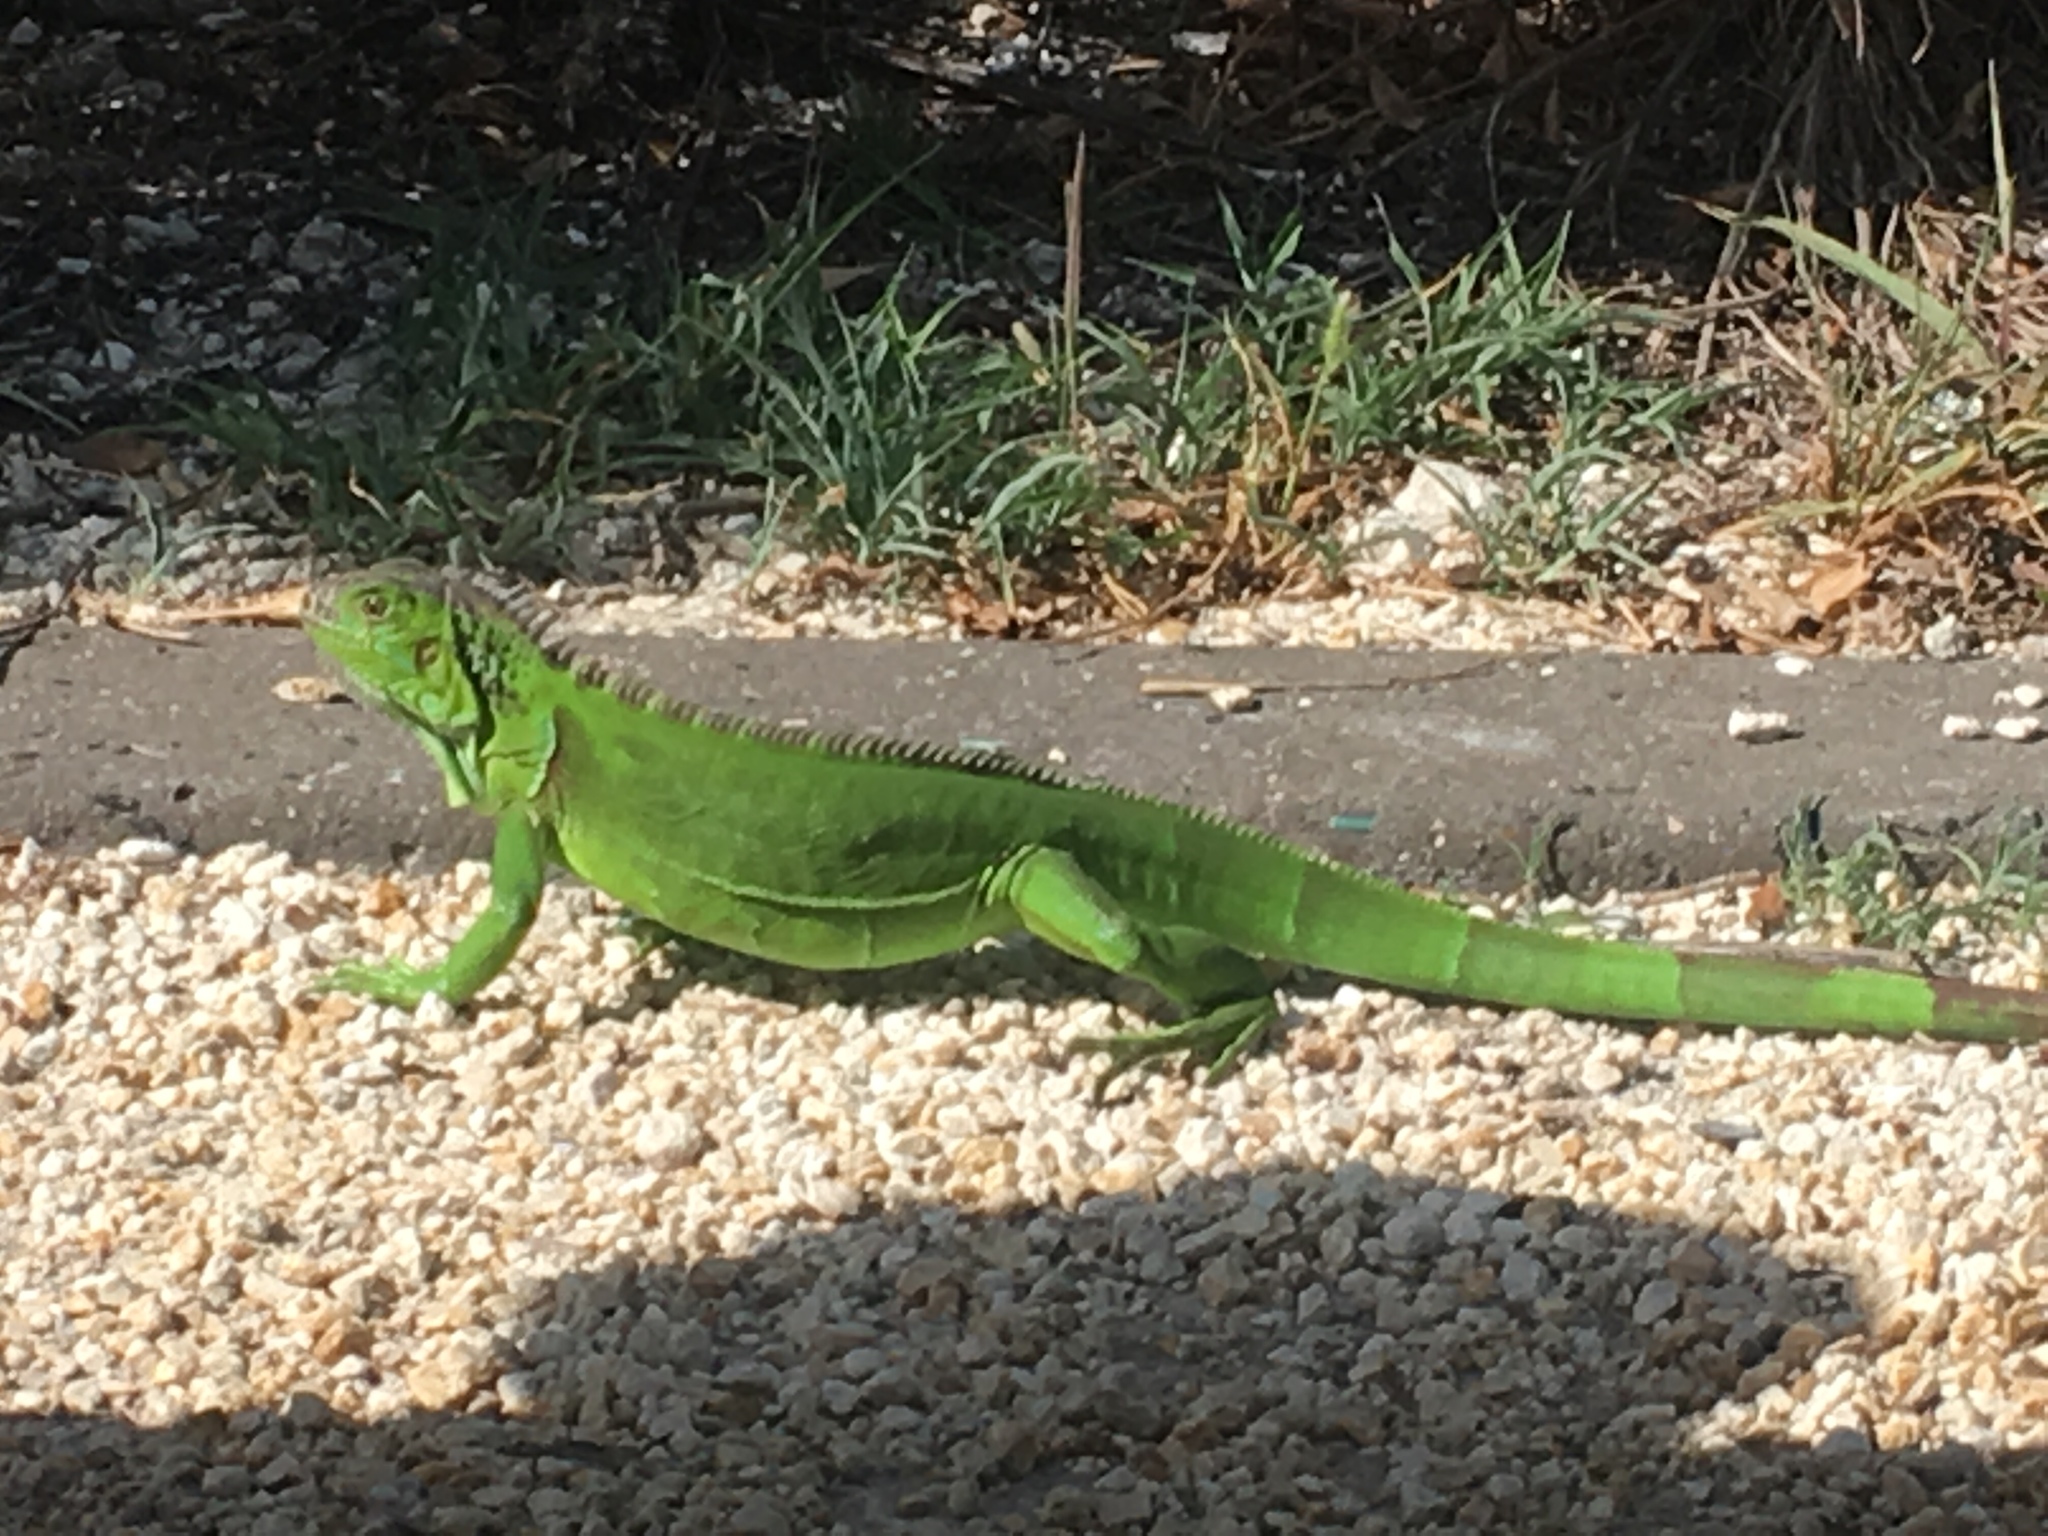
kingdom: Animalia
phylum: Chordata
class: Squamata
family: Iguanidae
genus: Iguana
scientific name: Iguana iguana
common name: Green iguana
